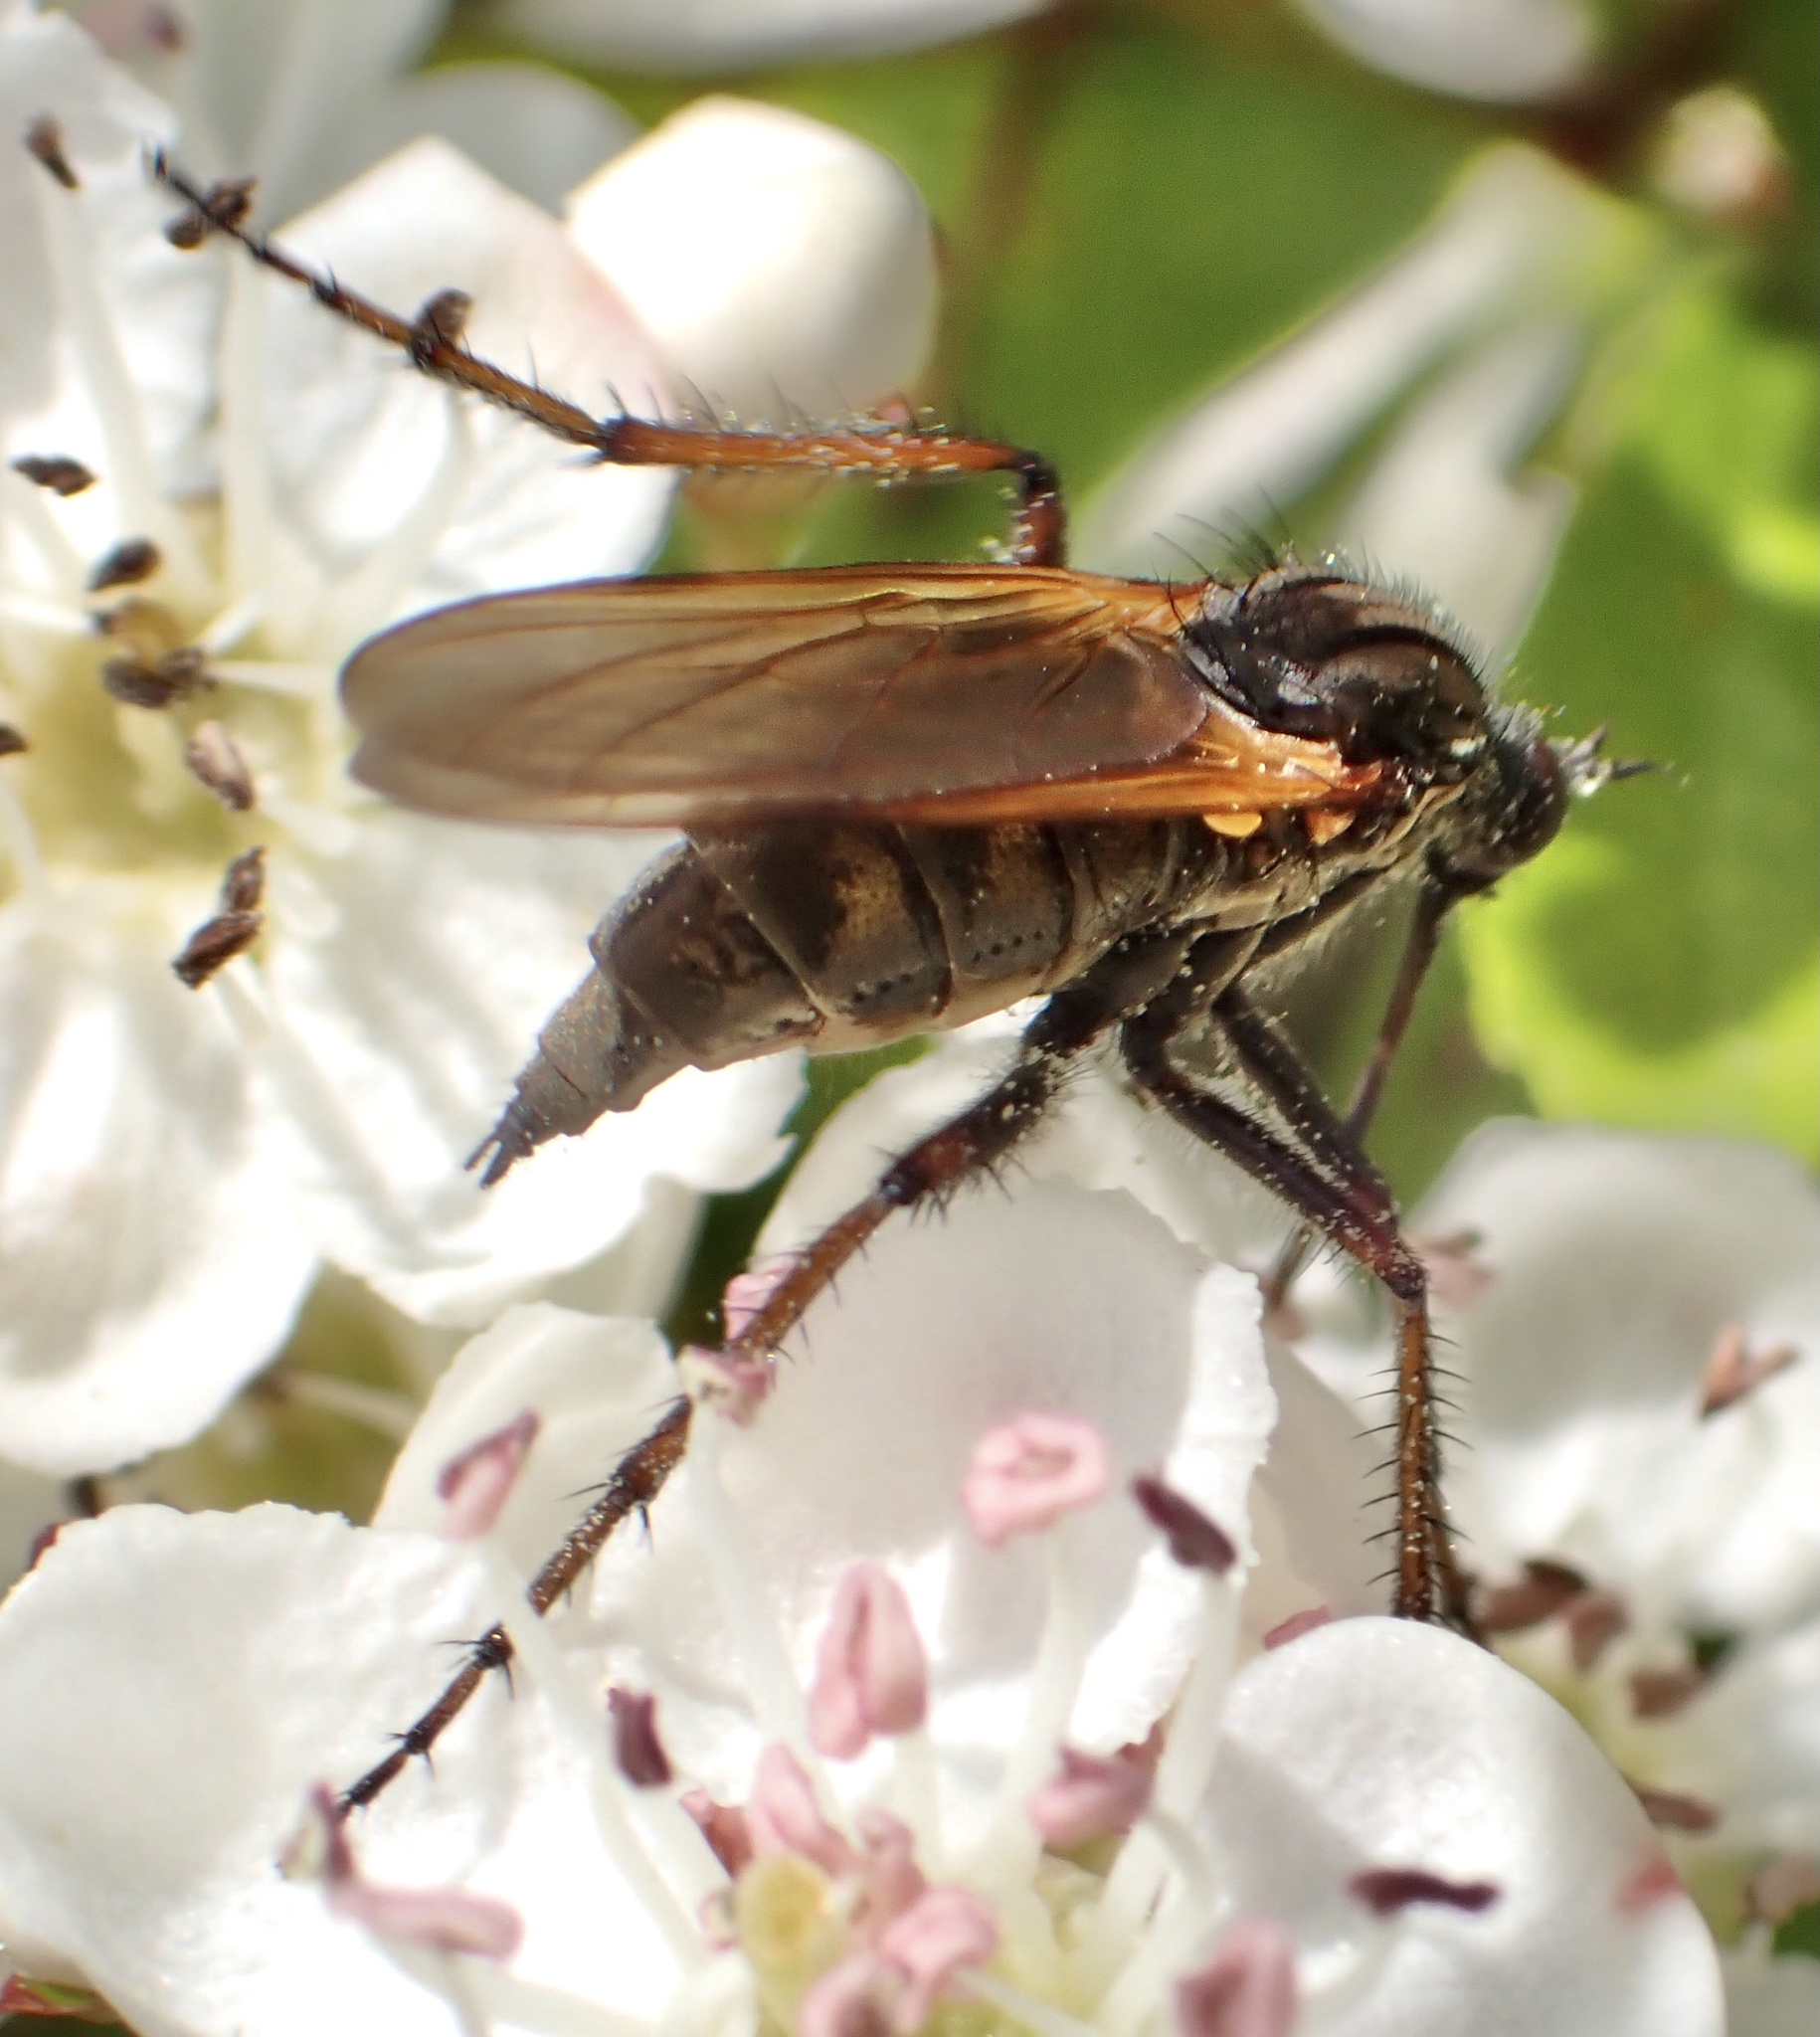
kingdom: Animalia
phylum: Arthropoda
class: Insecta
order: Diptera
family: Empididae
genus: Empis
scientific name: Empis tessellata
